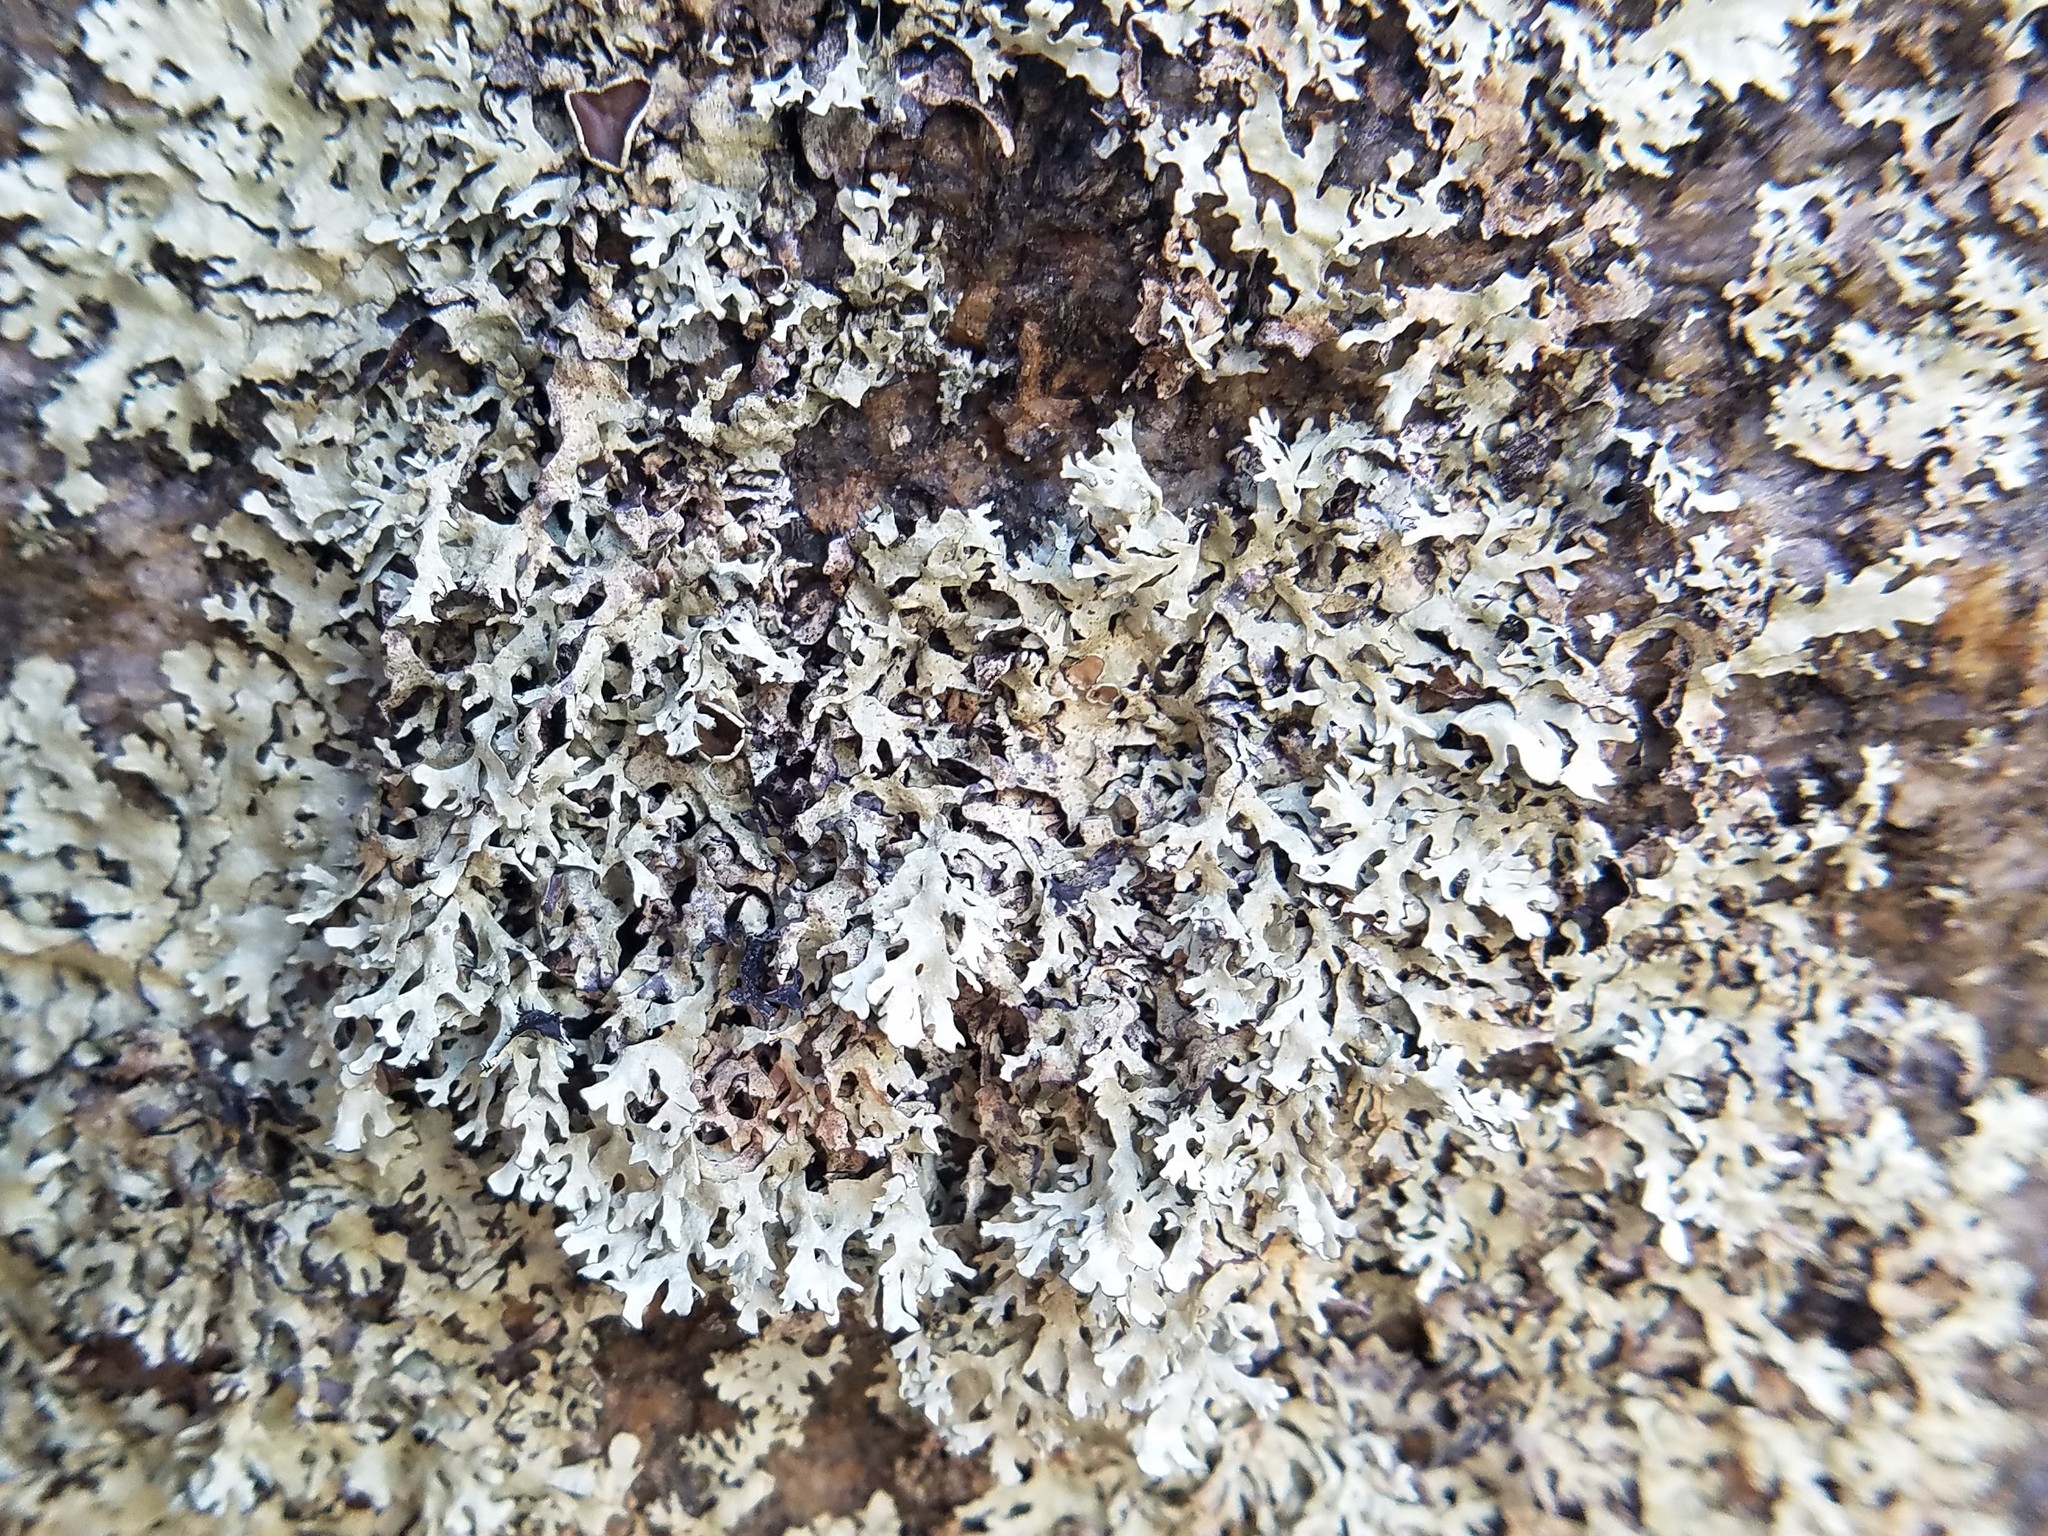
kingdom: Fungi
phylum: Ascomycota
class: Lecanoromycetes
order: Lecanorales
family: Parmeliaceae
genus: Xanthoparmelia
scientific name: Xanthoparmelia isidiascens
